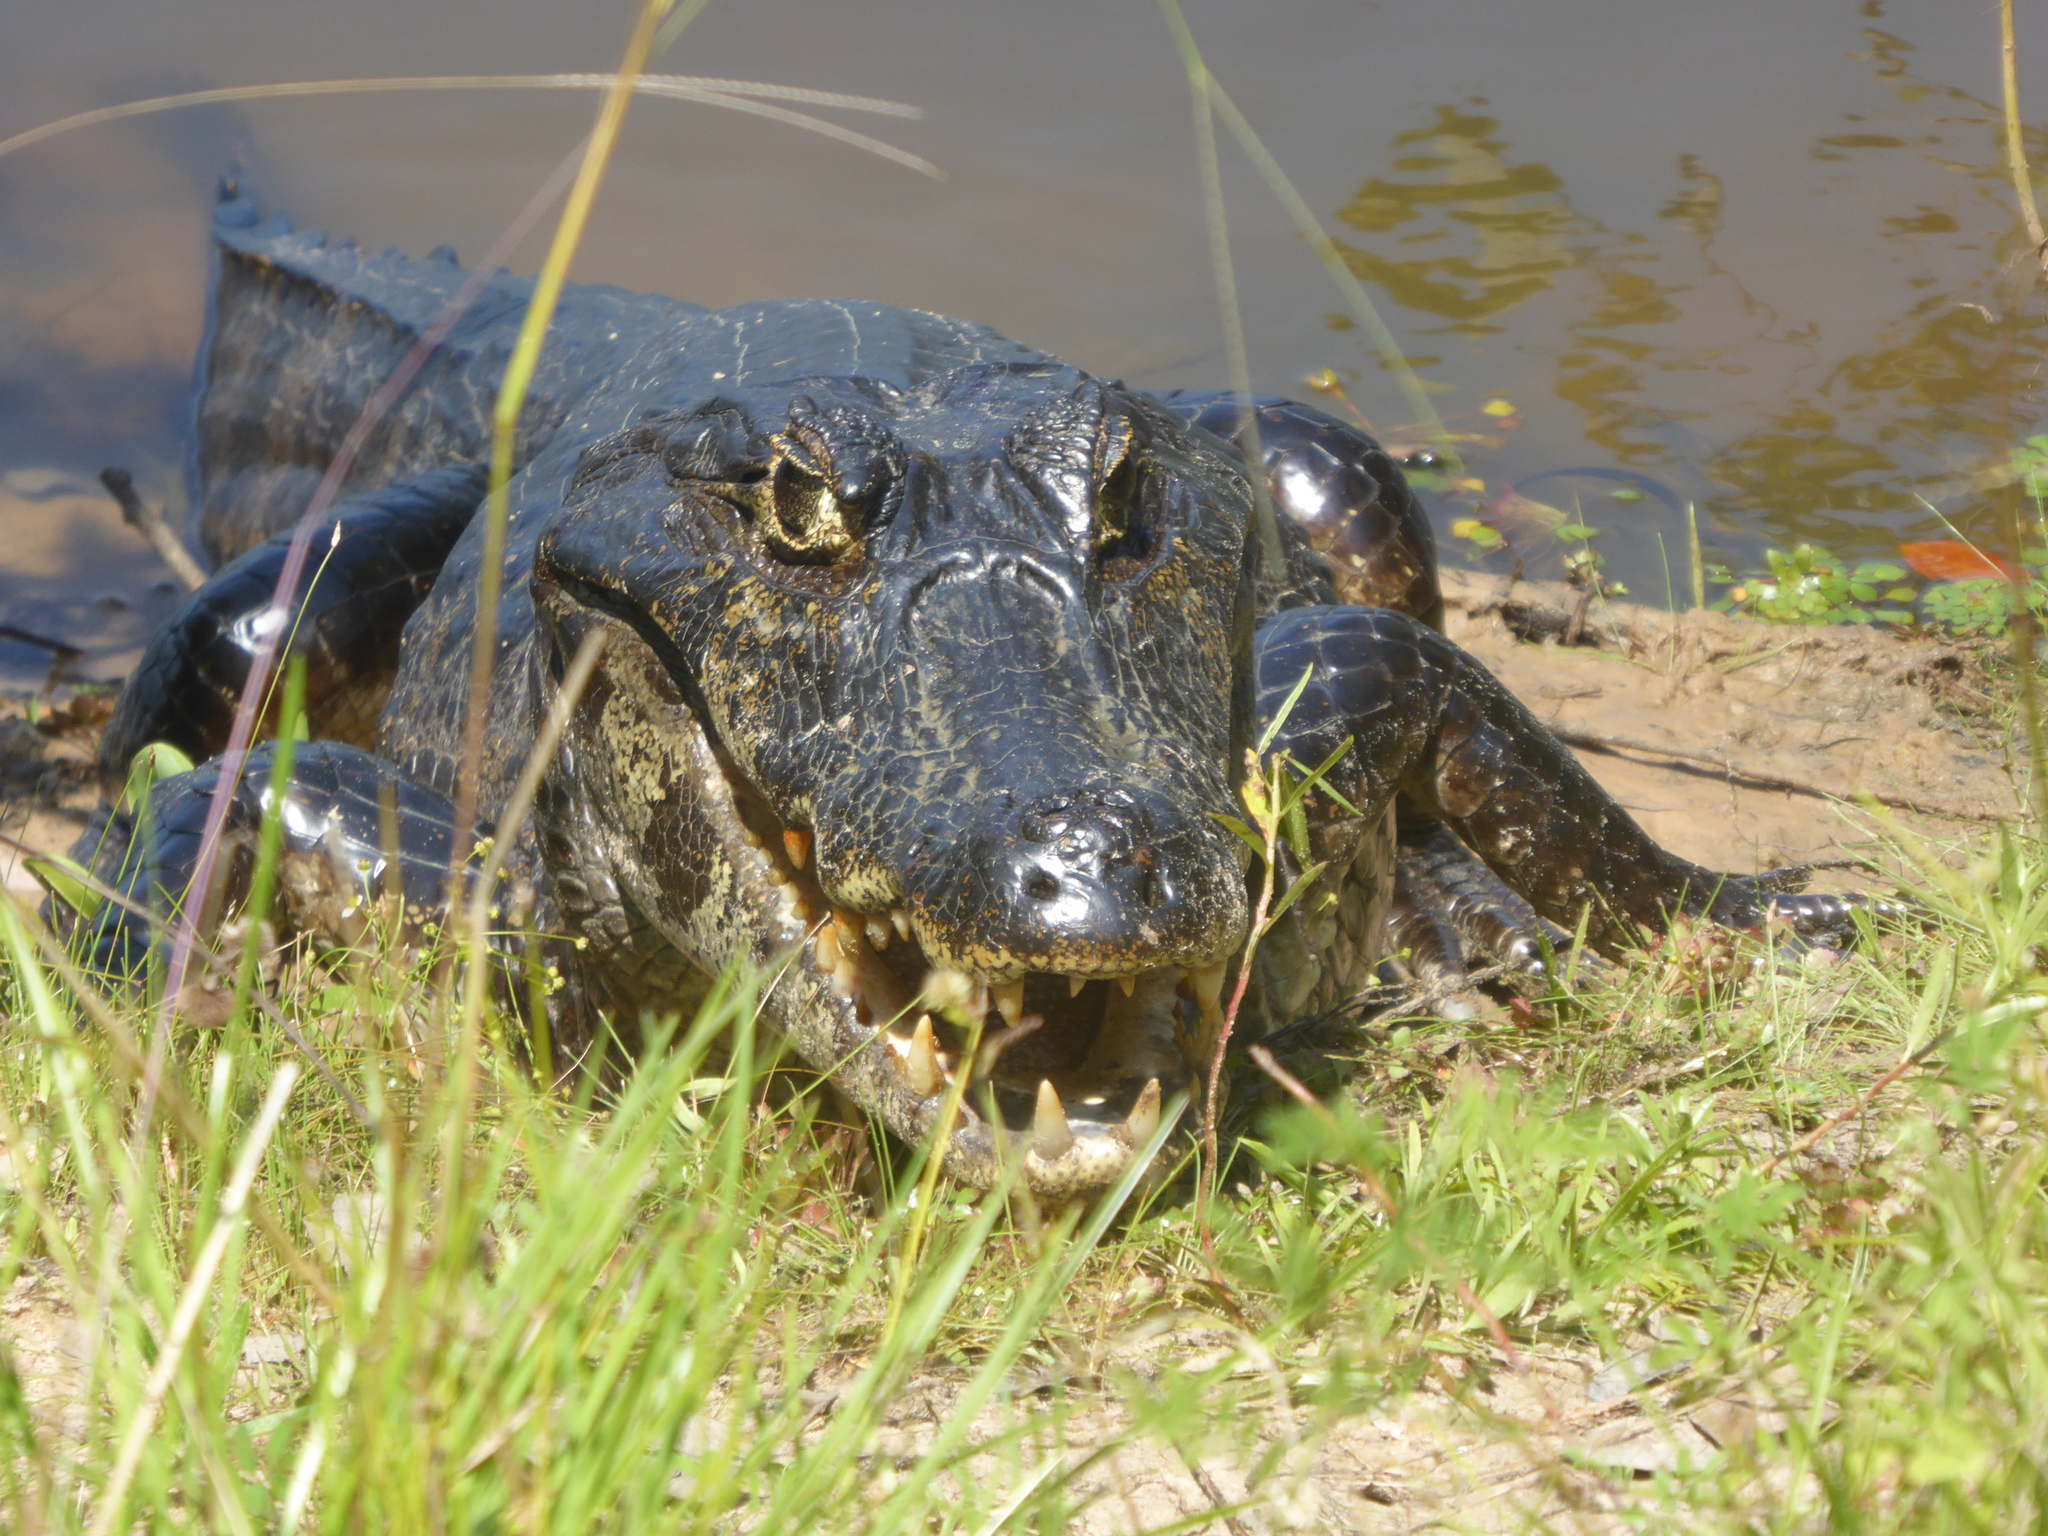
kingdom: Animalia
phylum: Chordata
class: Crocodylia
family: Alligatoridae
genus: Caiman
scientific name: Caiman yacare
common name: Yacare caiman
